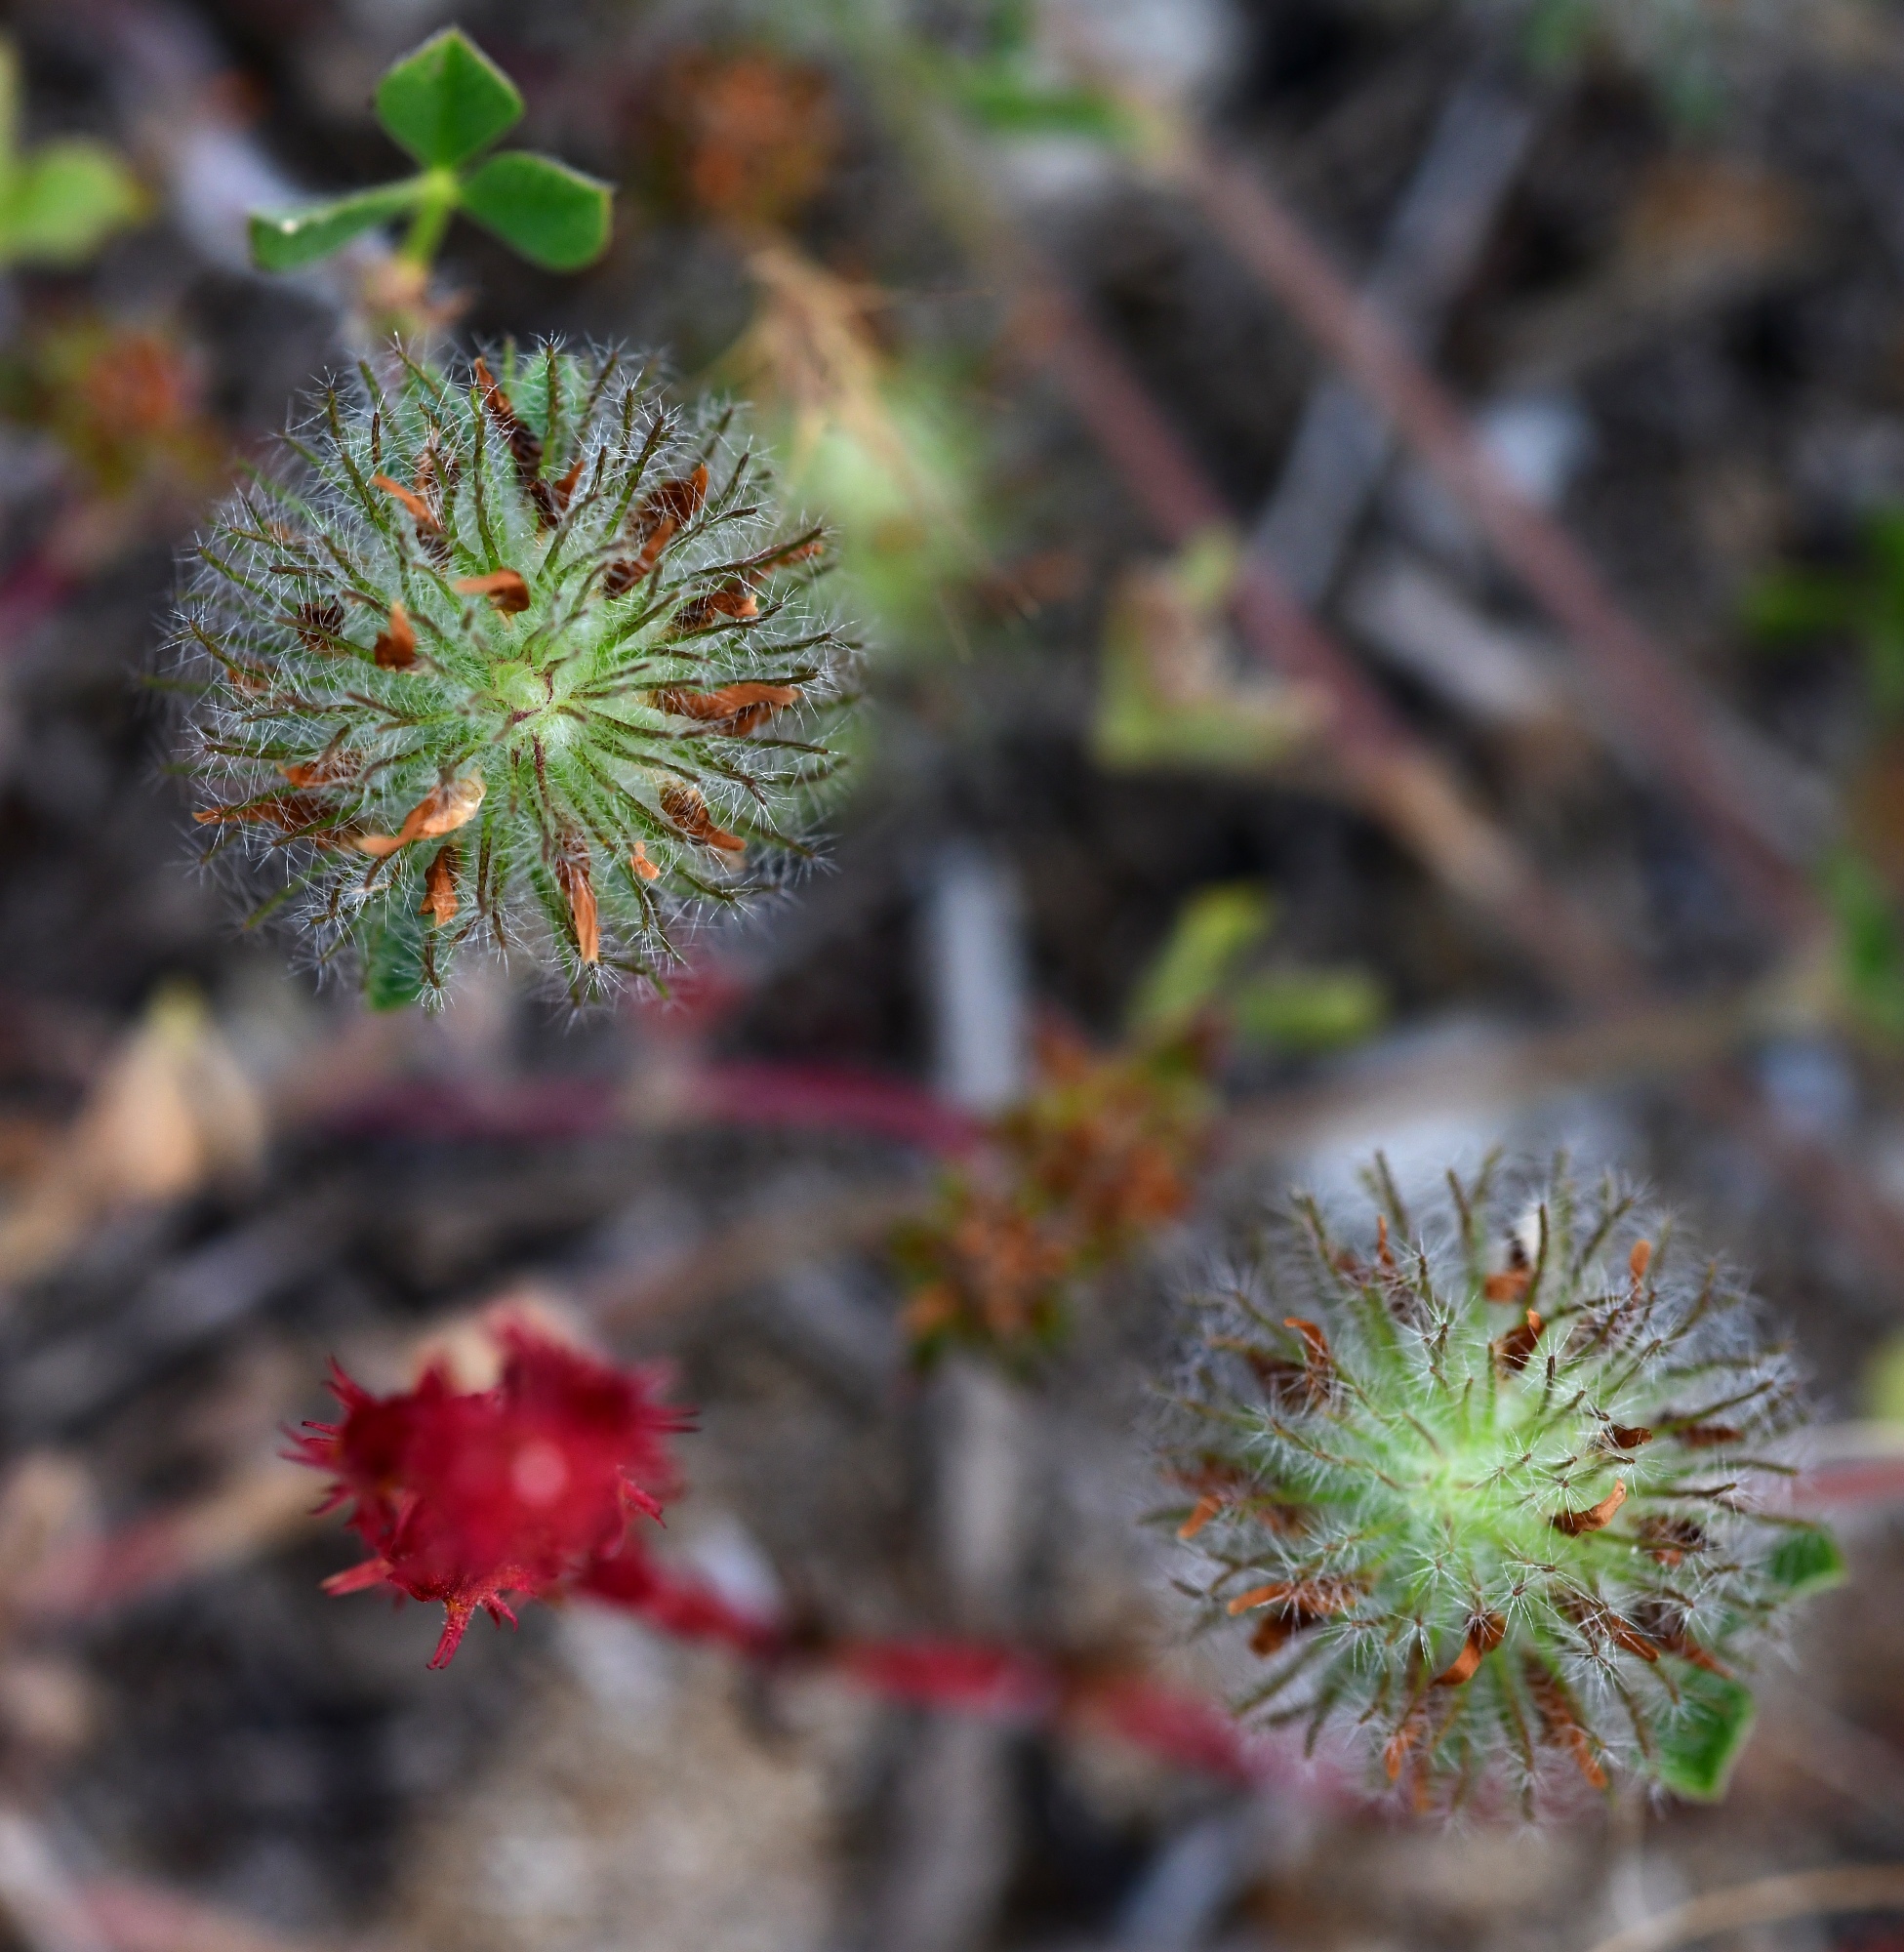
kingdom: Plantae
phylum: Tracheophyta
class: Magnoliopsida
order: Fabales
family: Fabaceae
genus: Trifolium
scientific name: Trifolium cherleri
